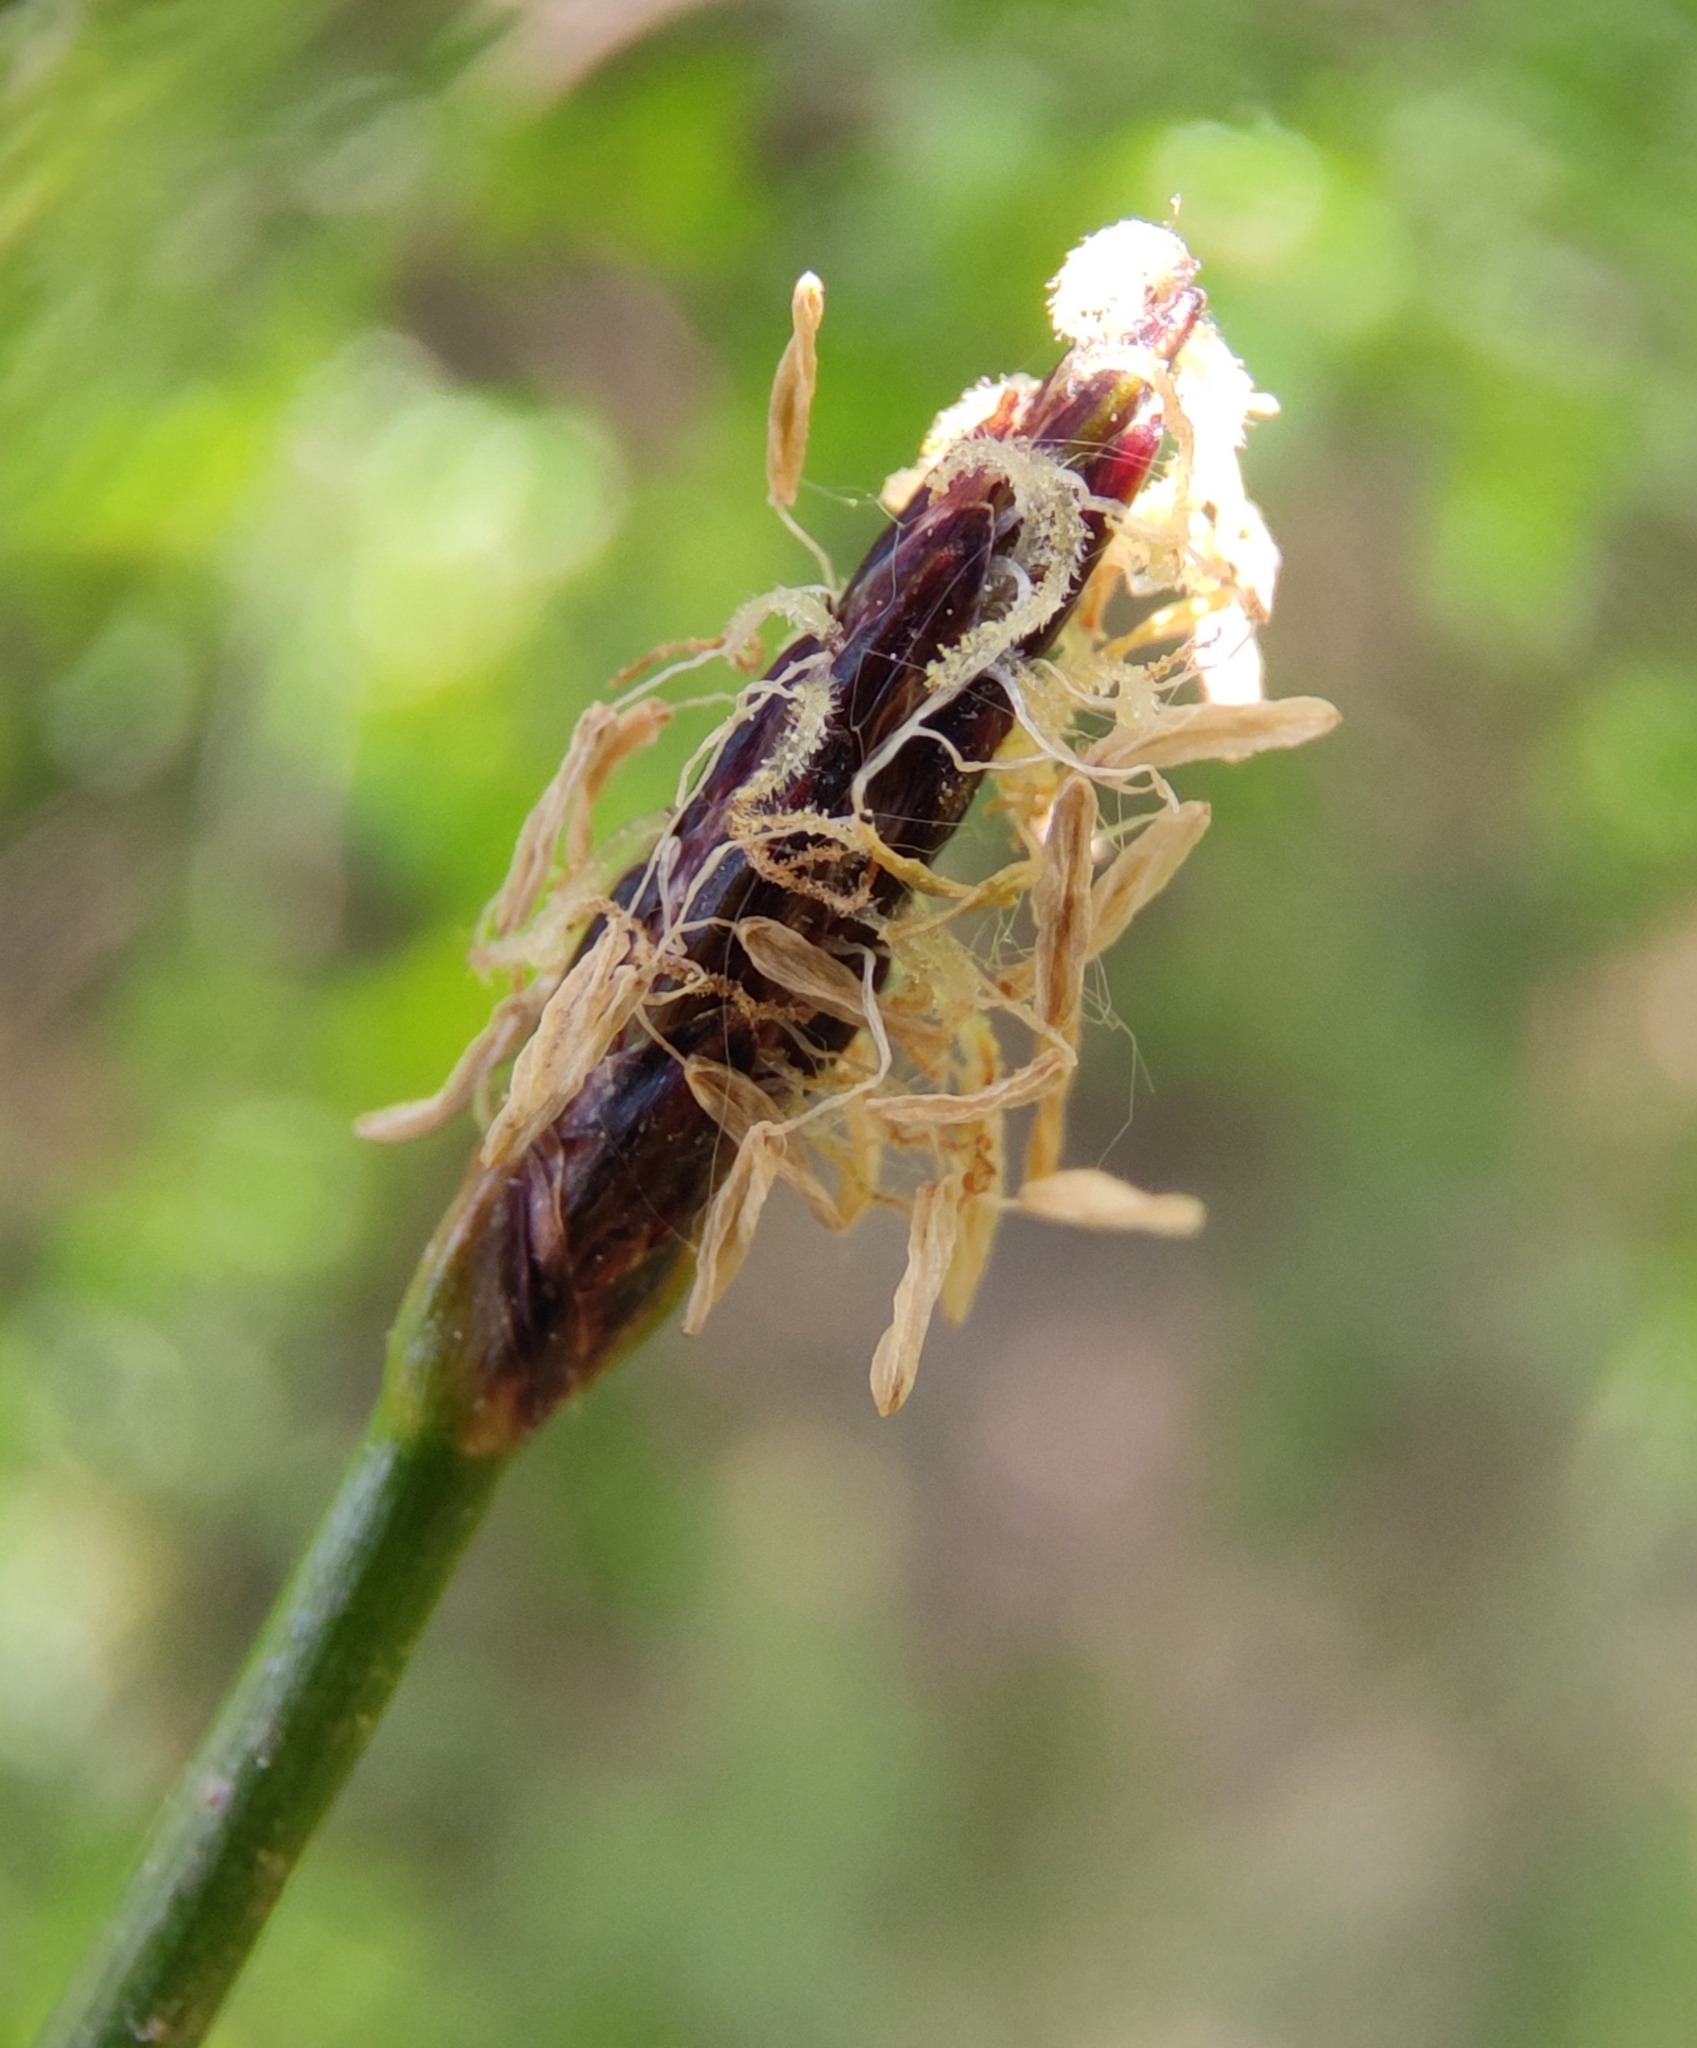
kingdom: Plantae
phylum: Tracheophyta
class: Liliopsida
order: Poales
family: Cyperaceae
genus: Eleocharis
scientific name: Eleocharis palustris
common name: Common spike-rush
